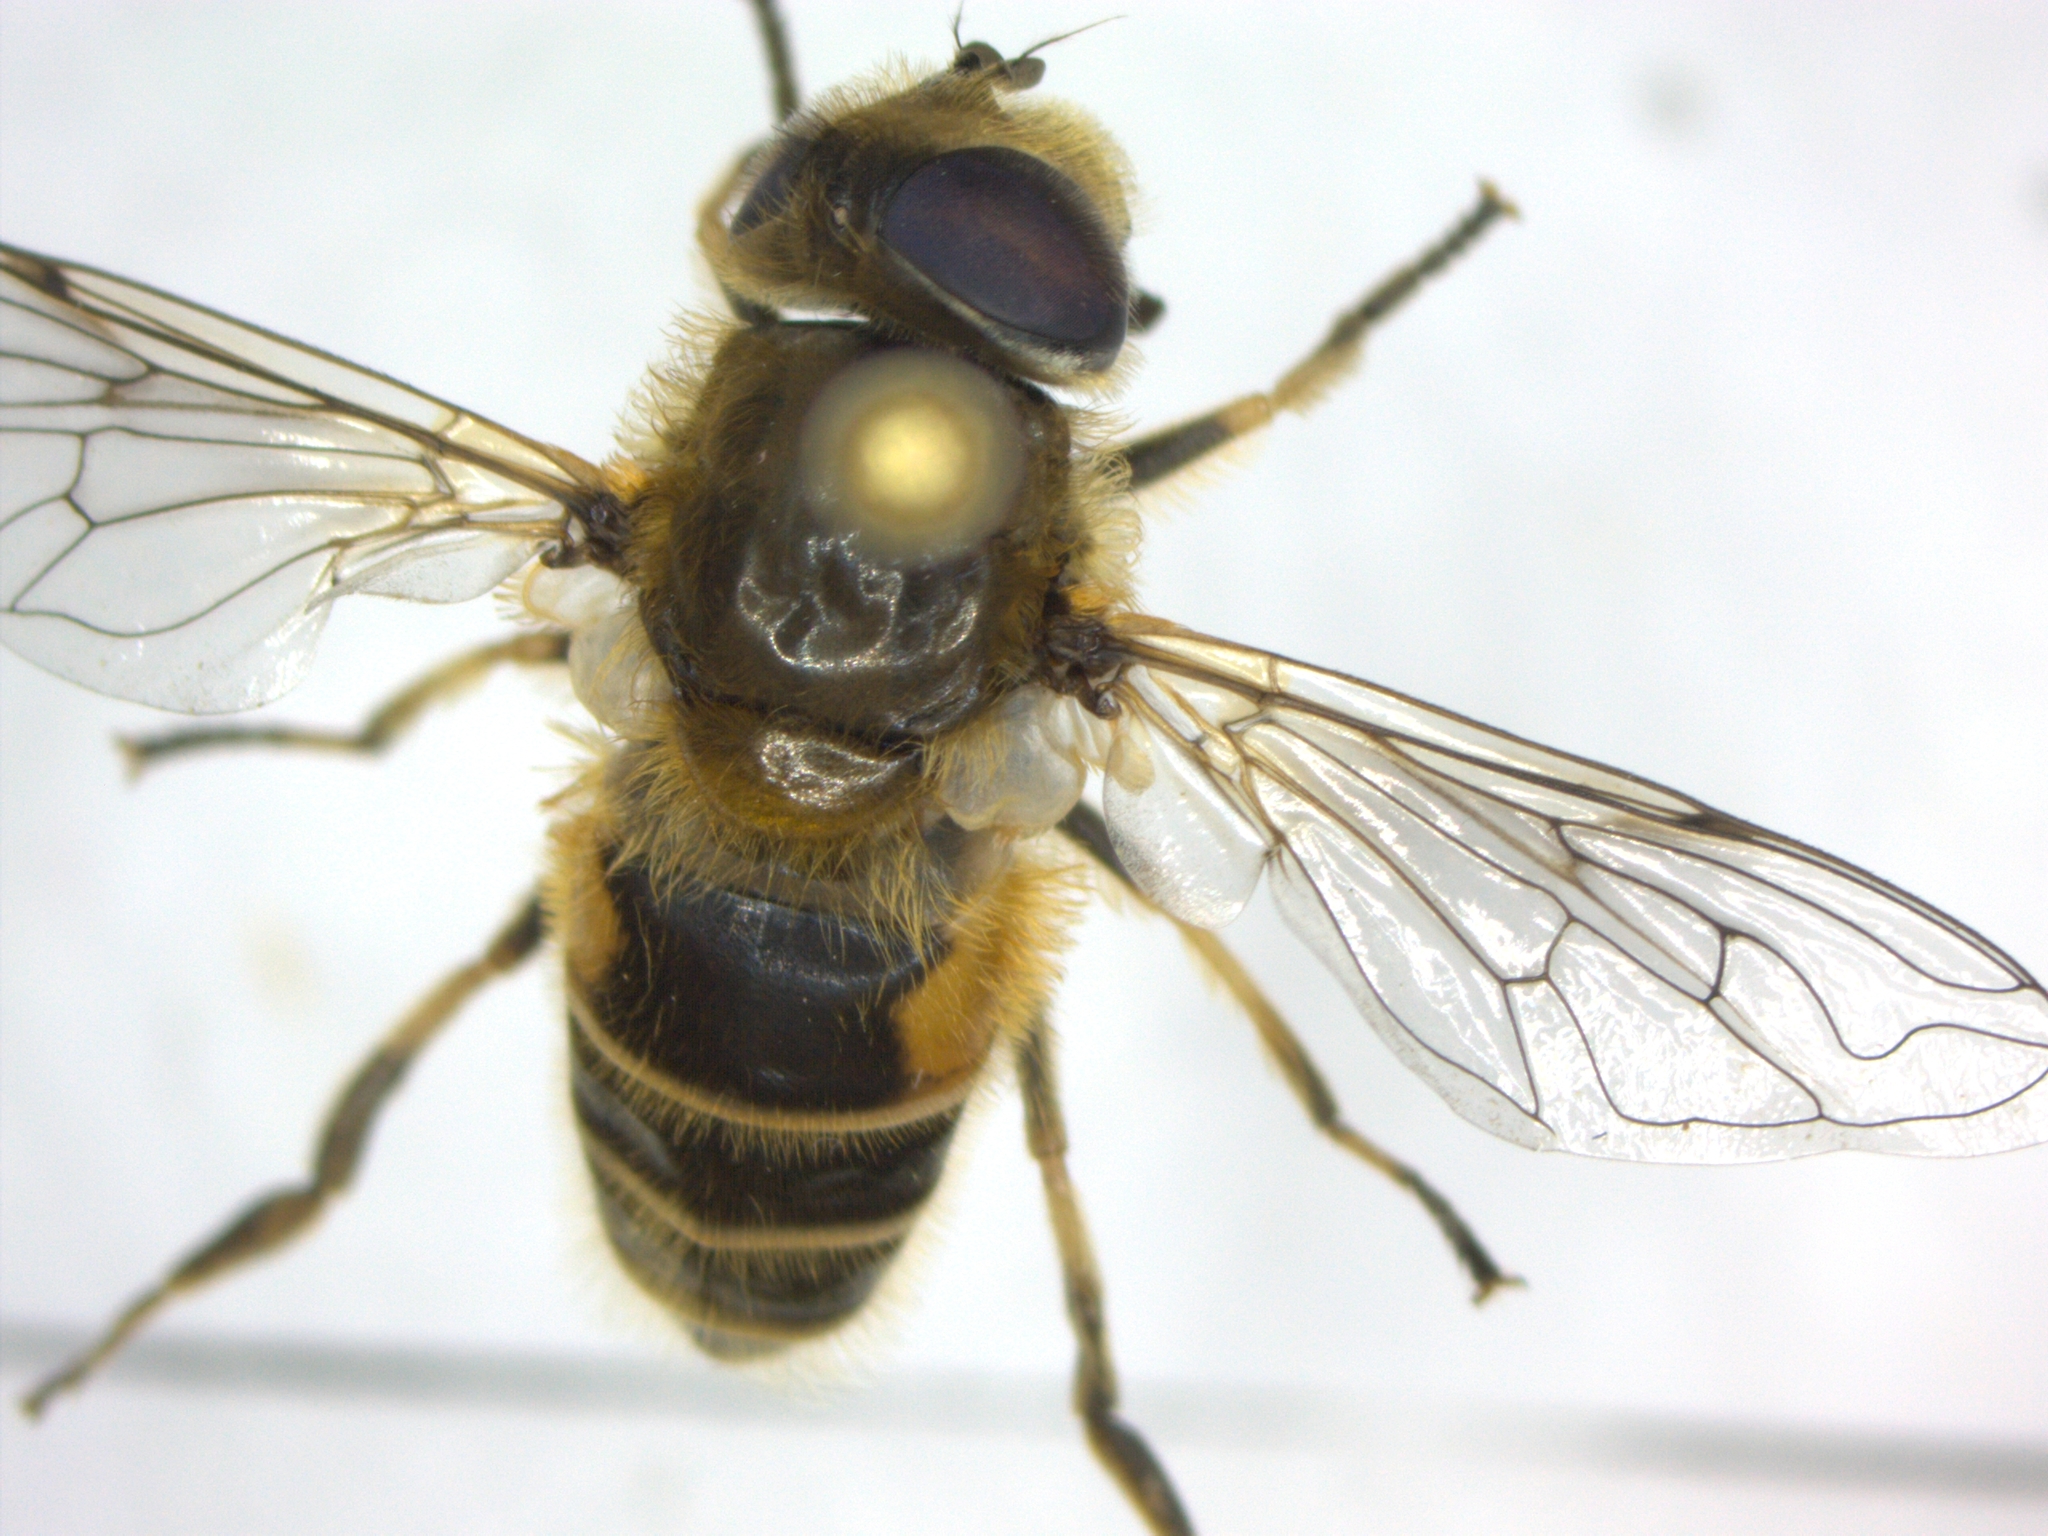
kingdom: Animalia
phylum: Arthropoda
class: Insecta
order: Diptera
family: Syrphidae
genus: Eristalis
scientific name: Eristalis arbustorum
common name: Hover fly
